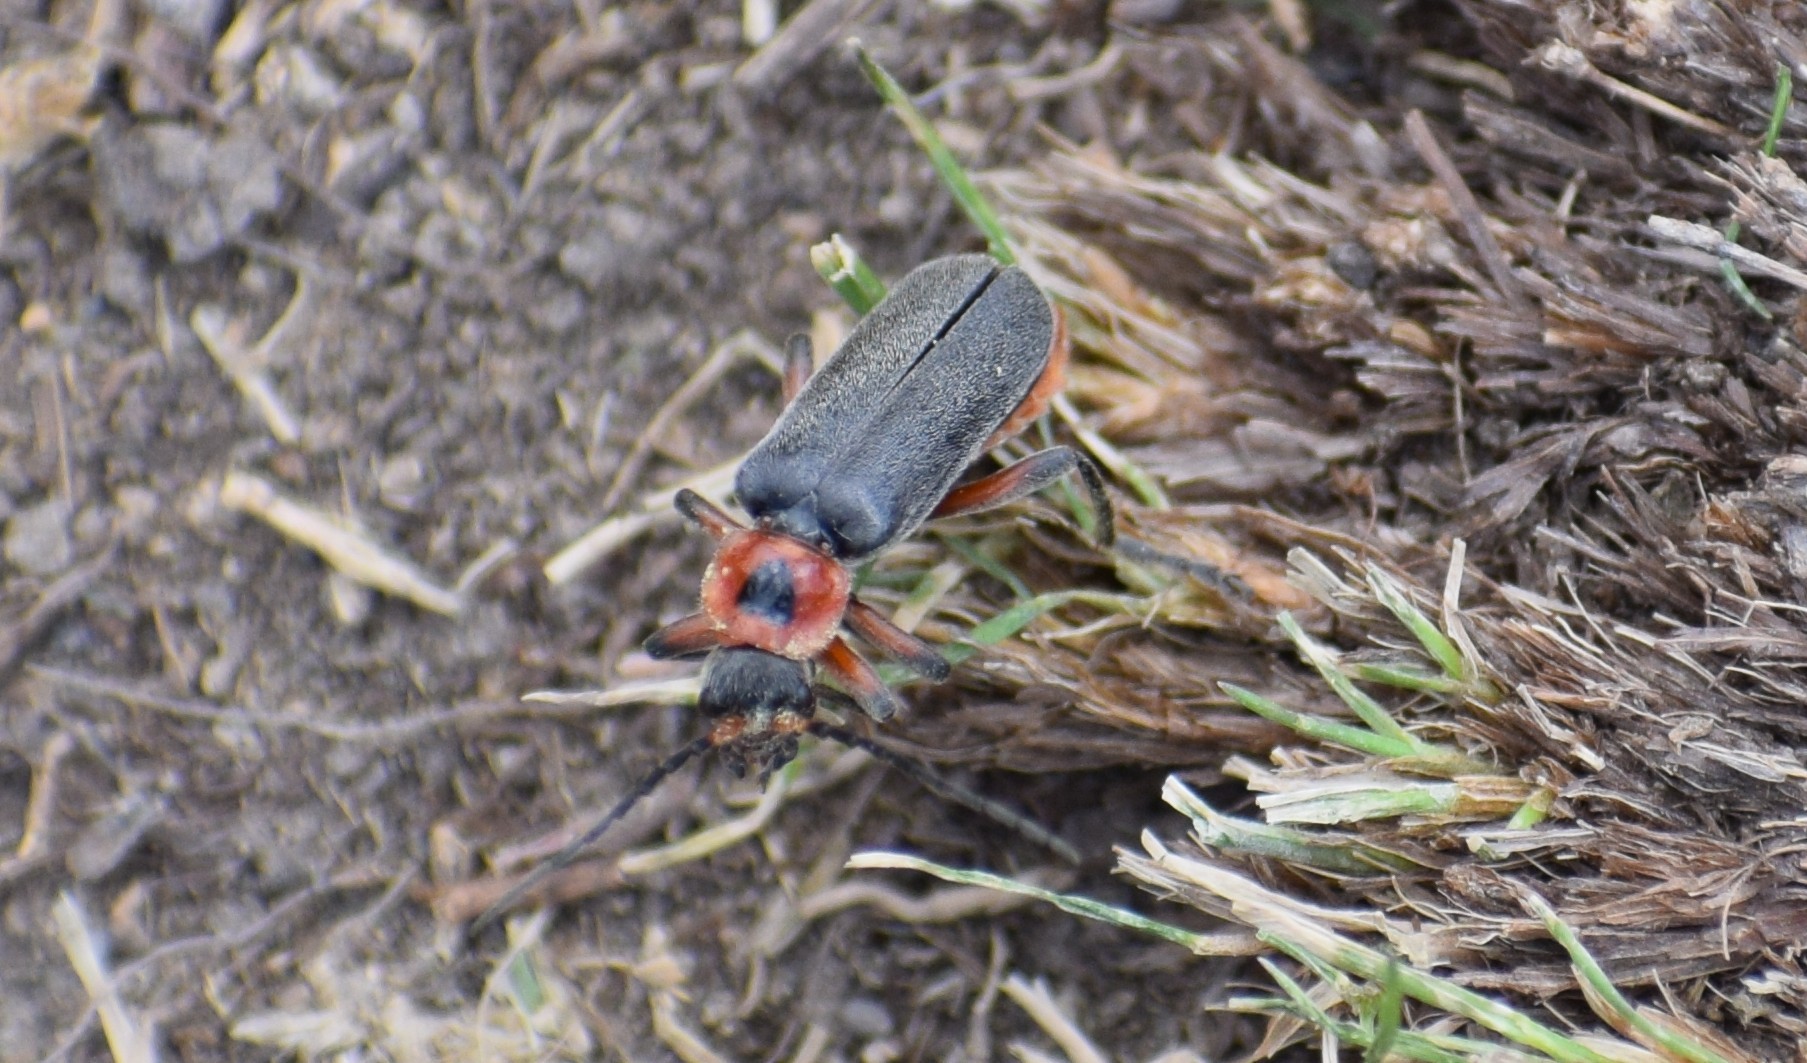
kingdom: Animalia
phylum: Arthropoda
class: Insecta
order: Coleoptera
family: Cantharidae
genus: Cantharis
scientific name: Cantharis rustica
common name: Soldier beetle
